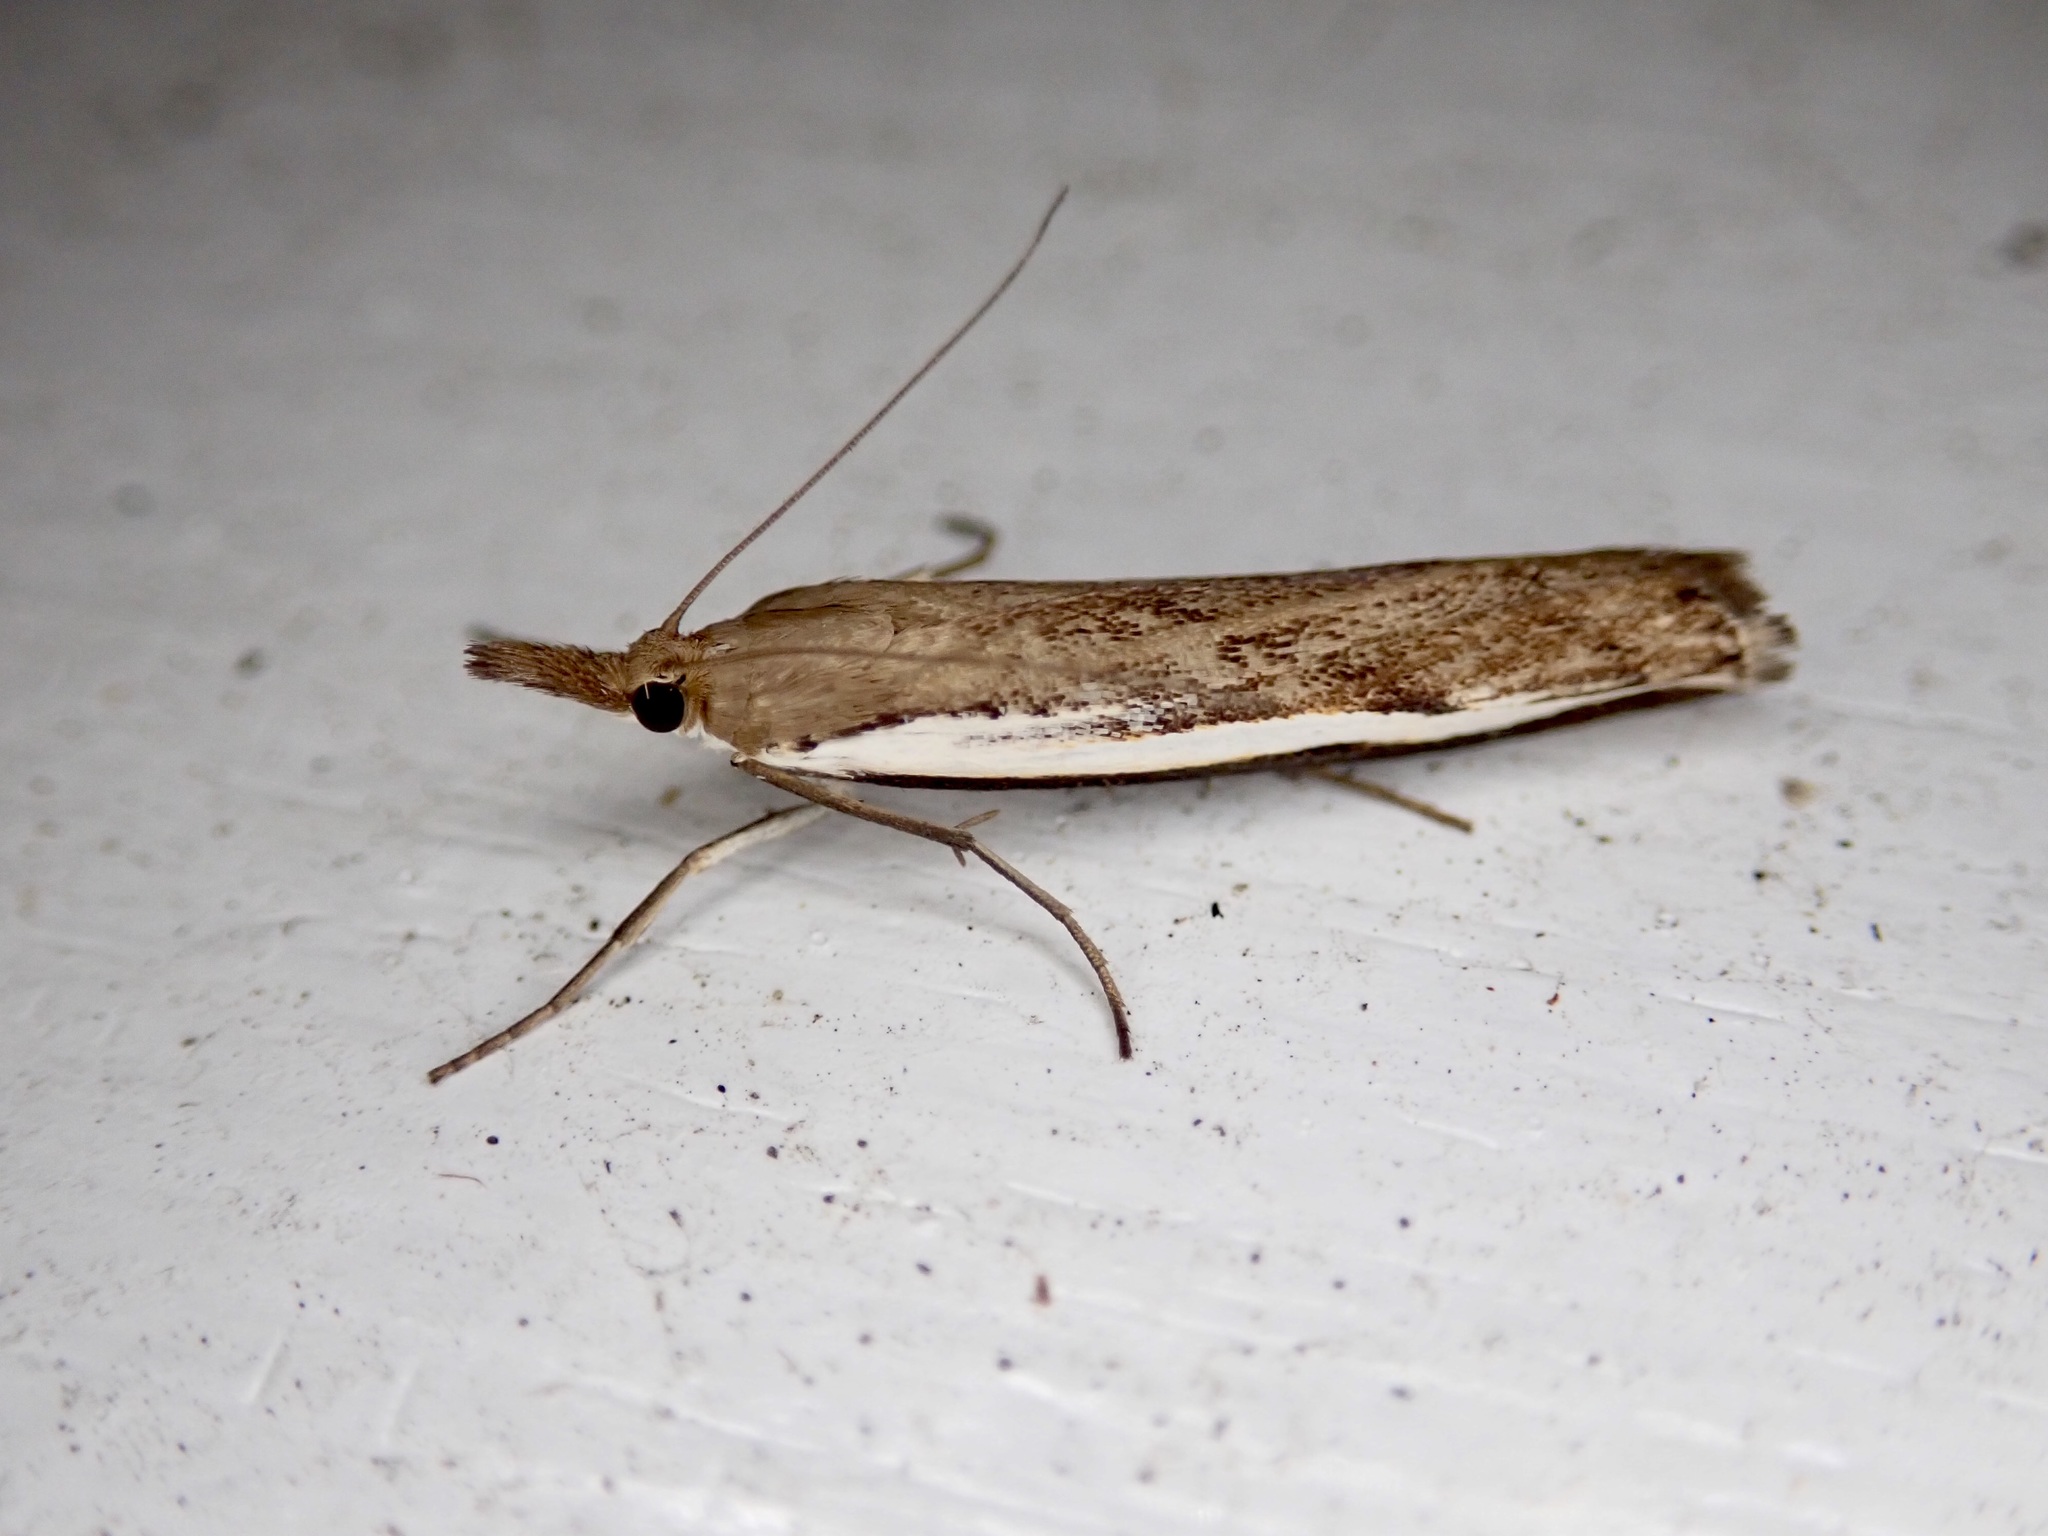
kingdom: Animalia
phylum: Arthropoda
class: Insecta
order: Lepidoptera
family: Crambidae
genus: Orocrambus
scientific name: Orocrambus flexuosellus
